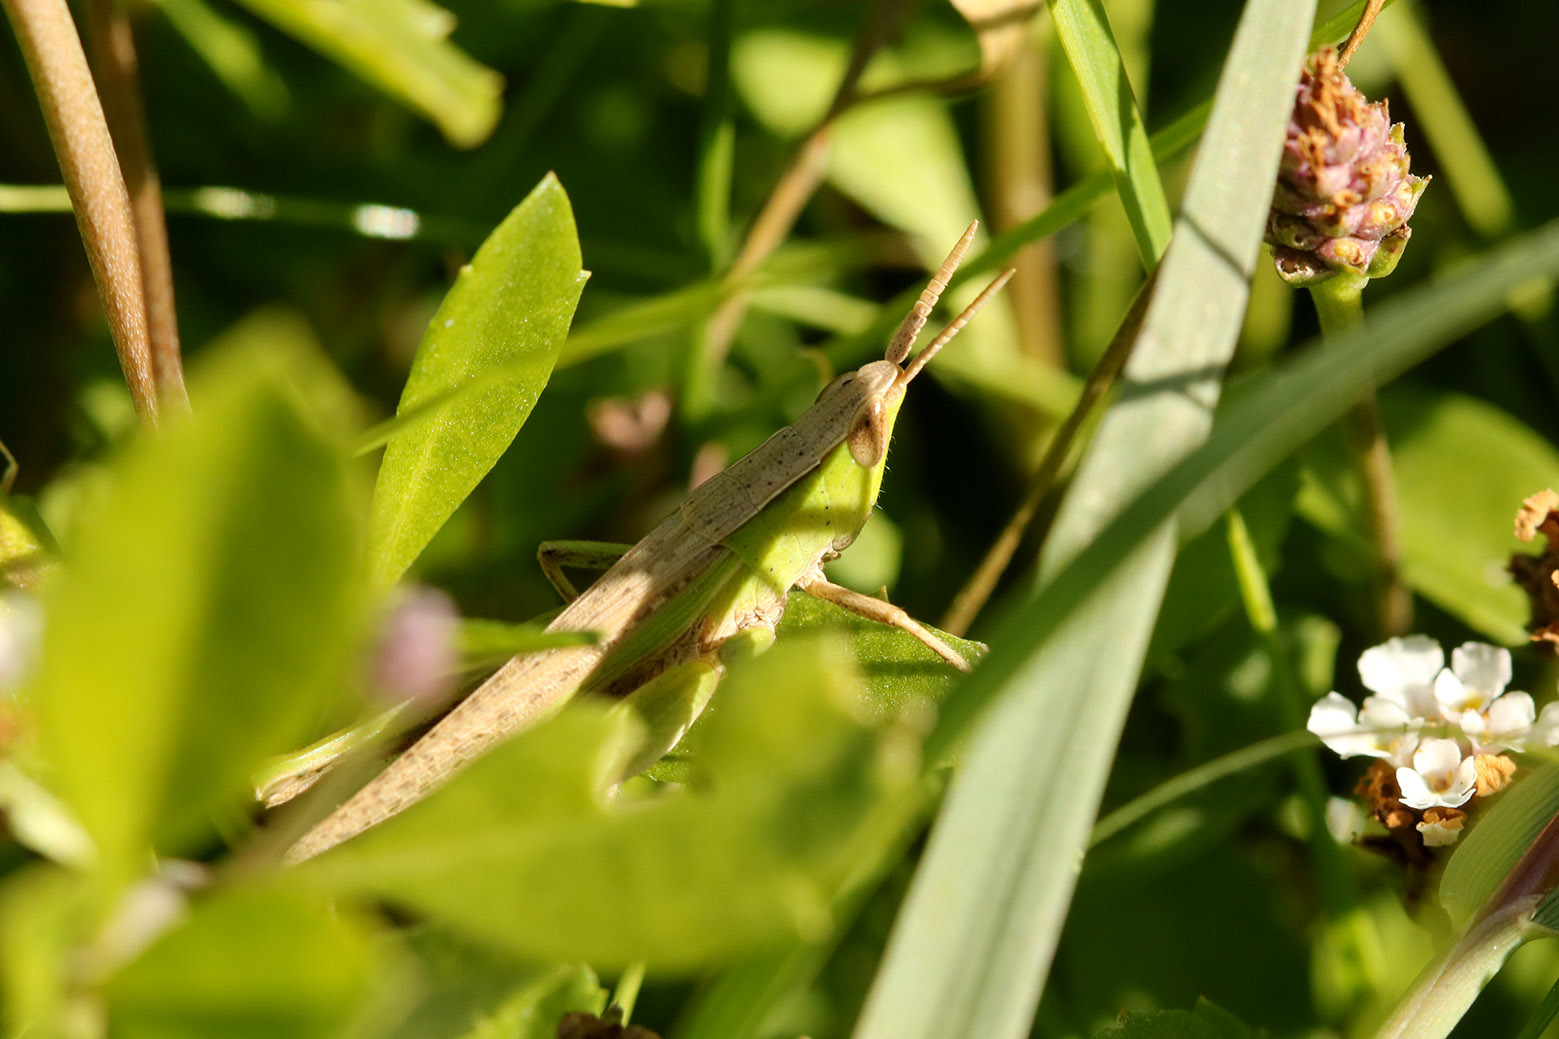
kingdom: Animalia
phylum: Arthropoda
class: Insecta
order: Orthoptera
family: Acrididae
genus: Laplatacris
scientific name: Laplatacris dispar
